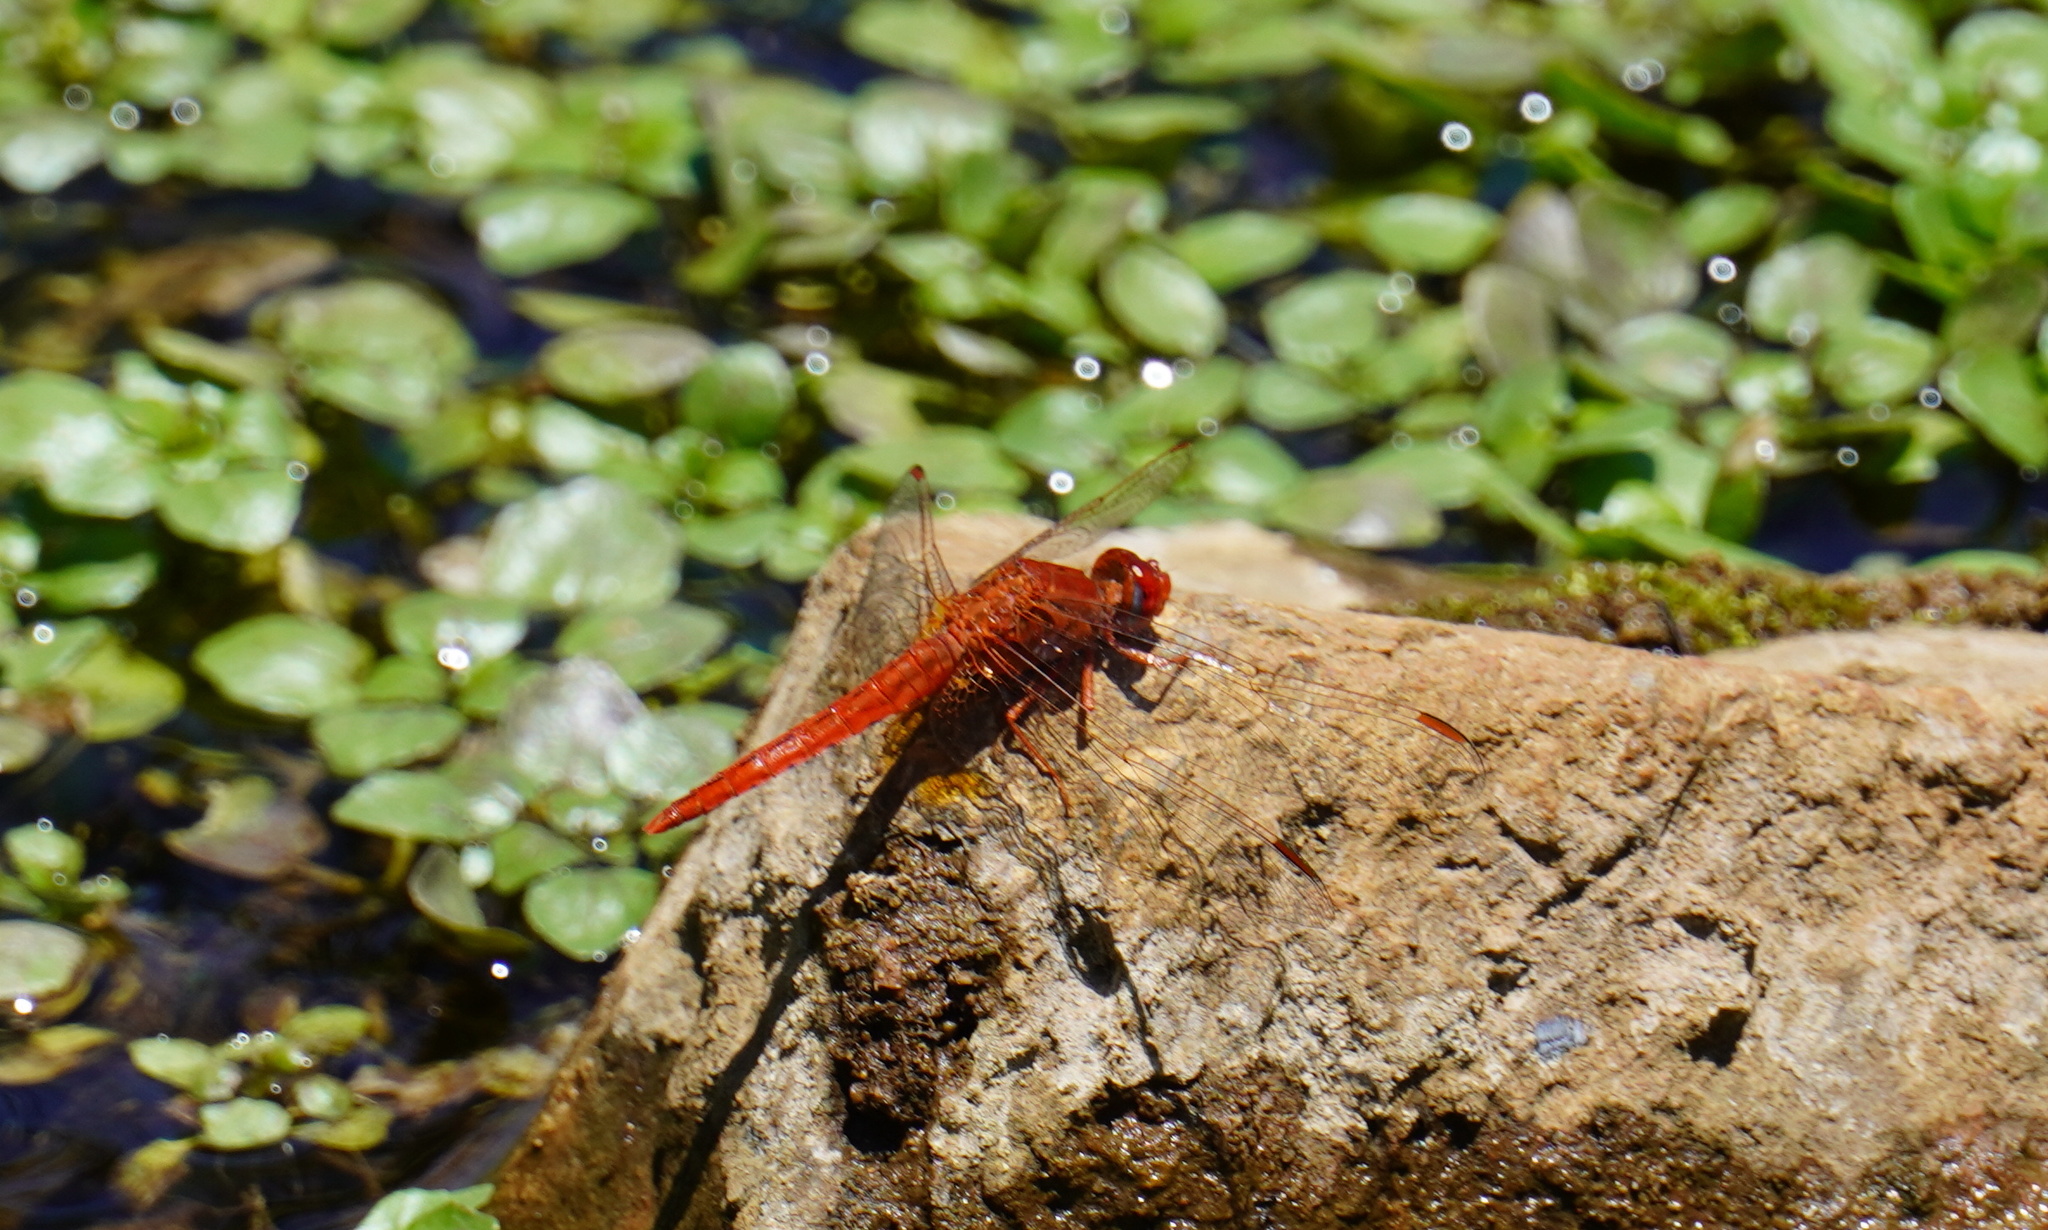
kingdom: Animalia
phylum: Arthropoda
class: Insecta
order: Odonata
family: Libellulidae
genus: Crocothemis
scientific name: Crocothemis sanguinolenta
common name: Little scarlet
